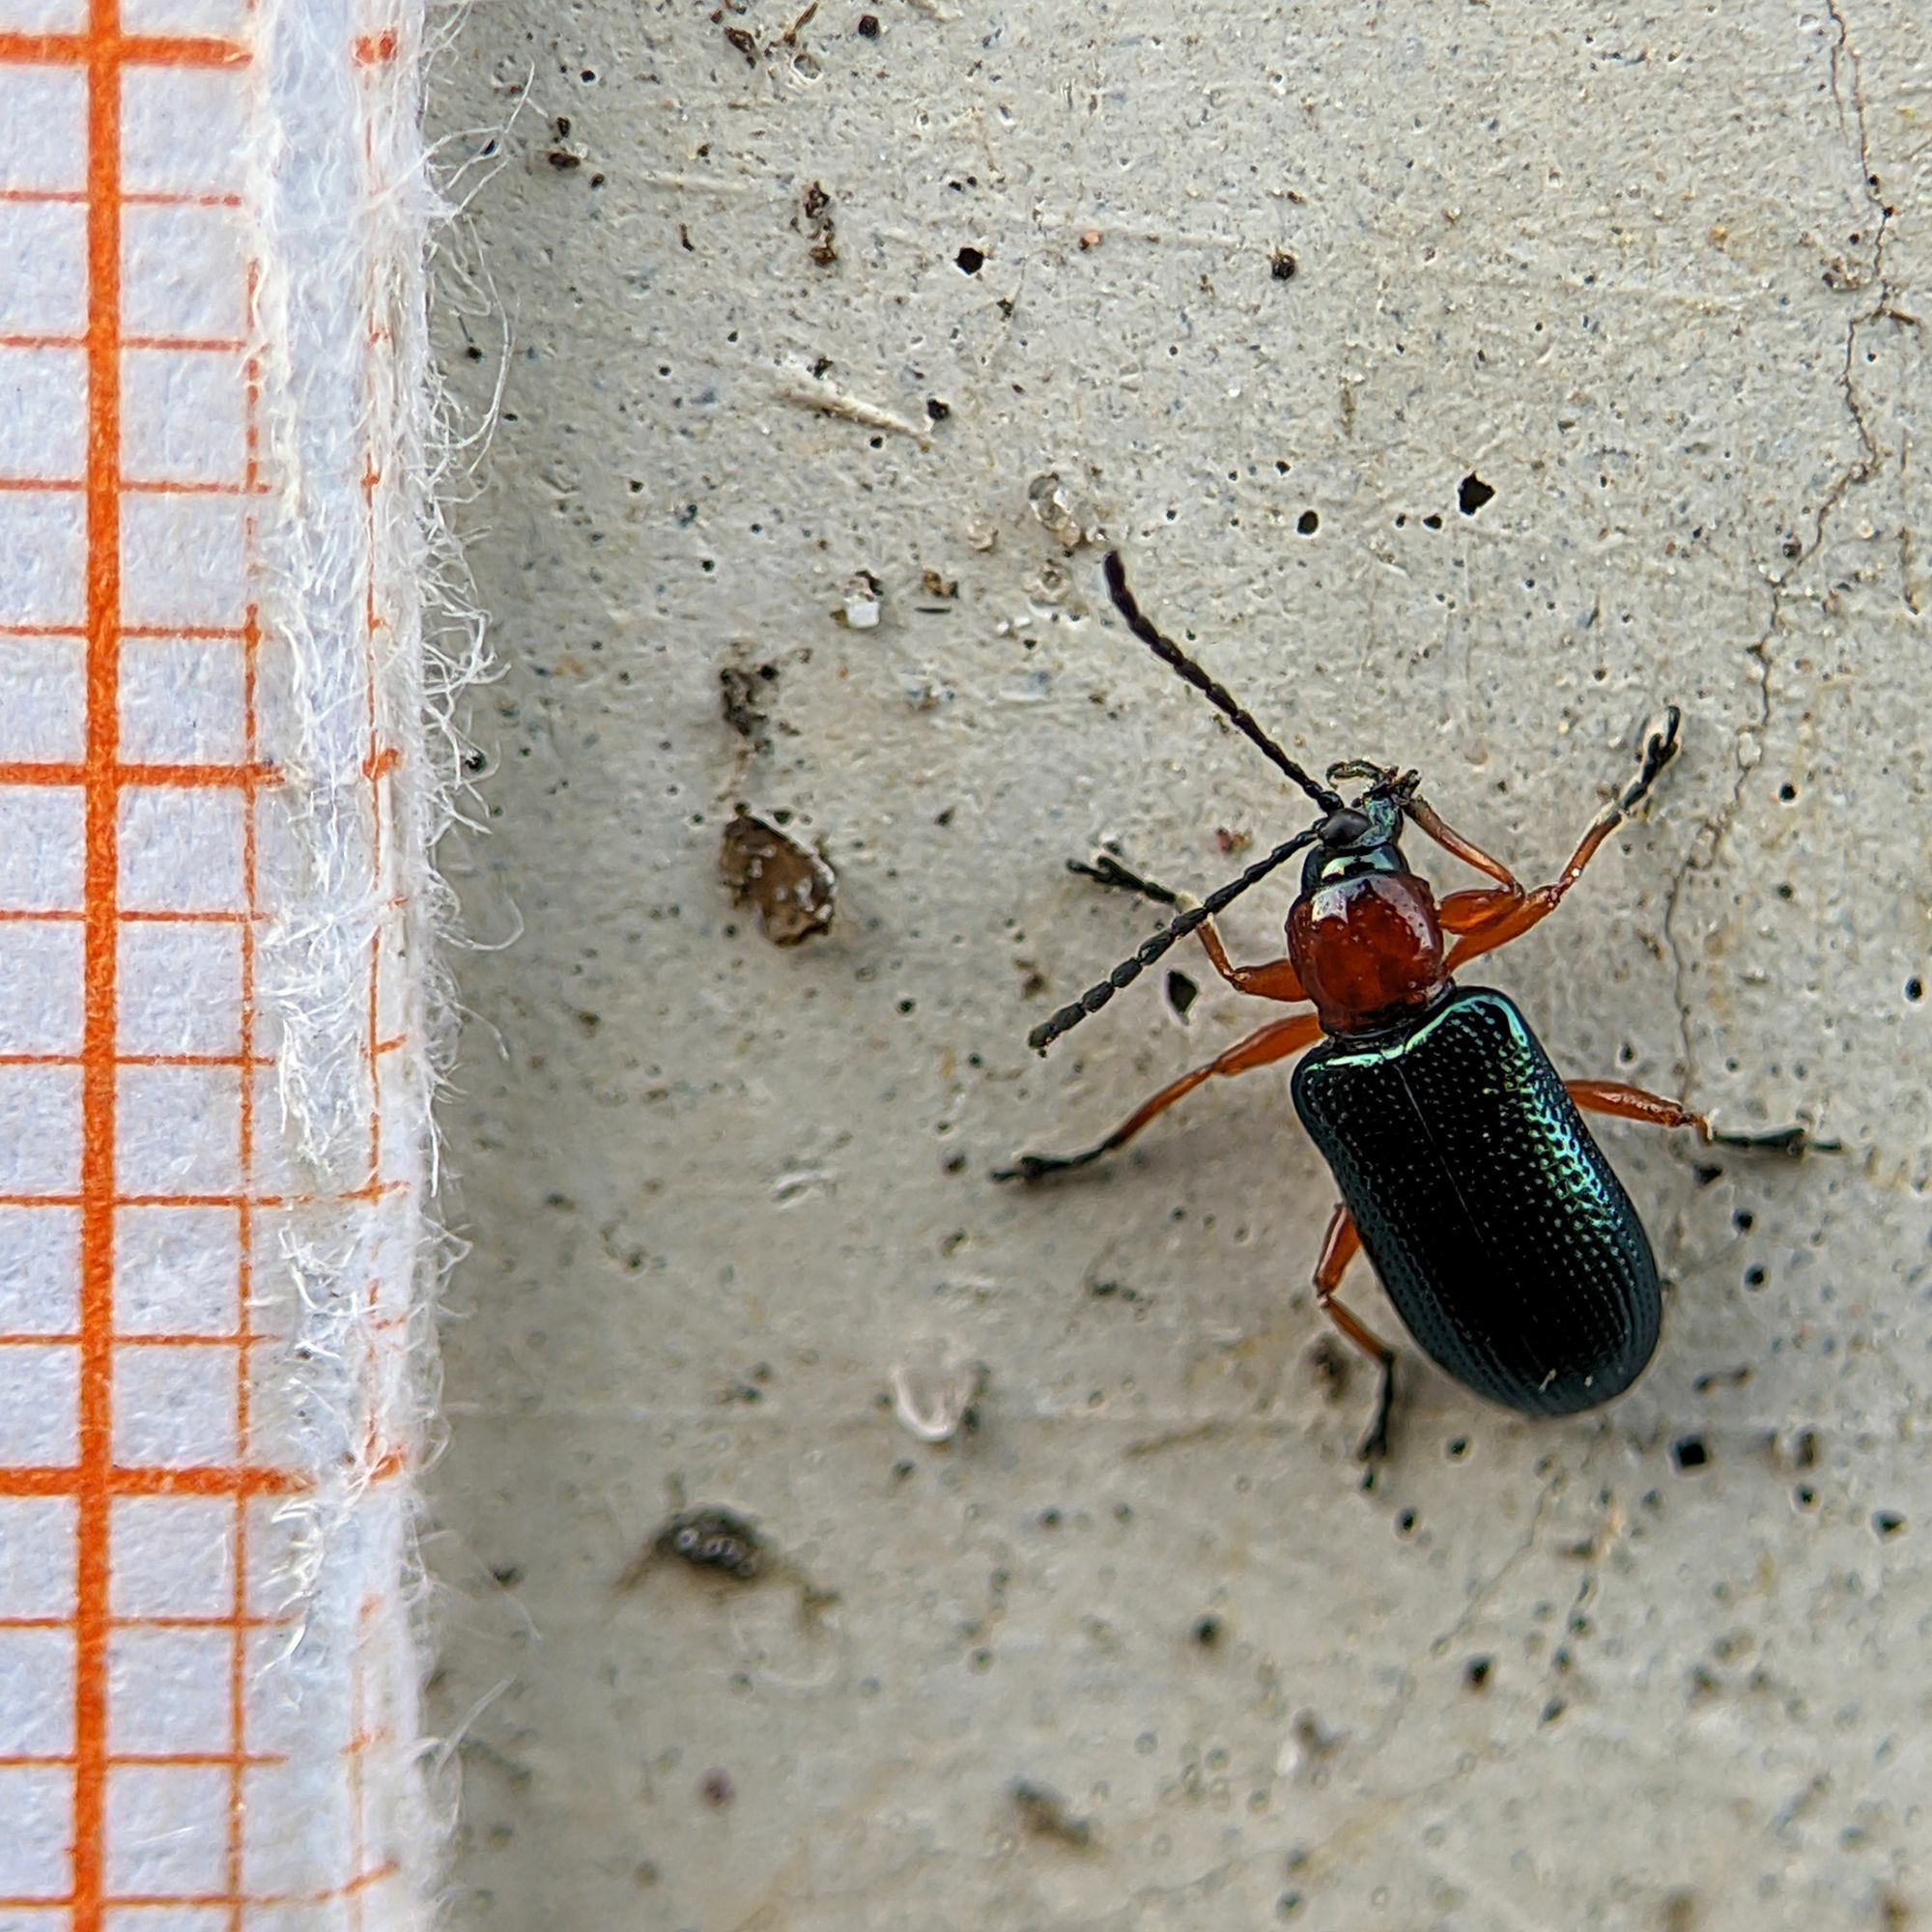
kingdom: Animalia
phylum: Arthropoda
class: Insecta
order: Coleoptera
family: Chrysomelidae
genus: Oulema
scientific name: Oulema
